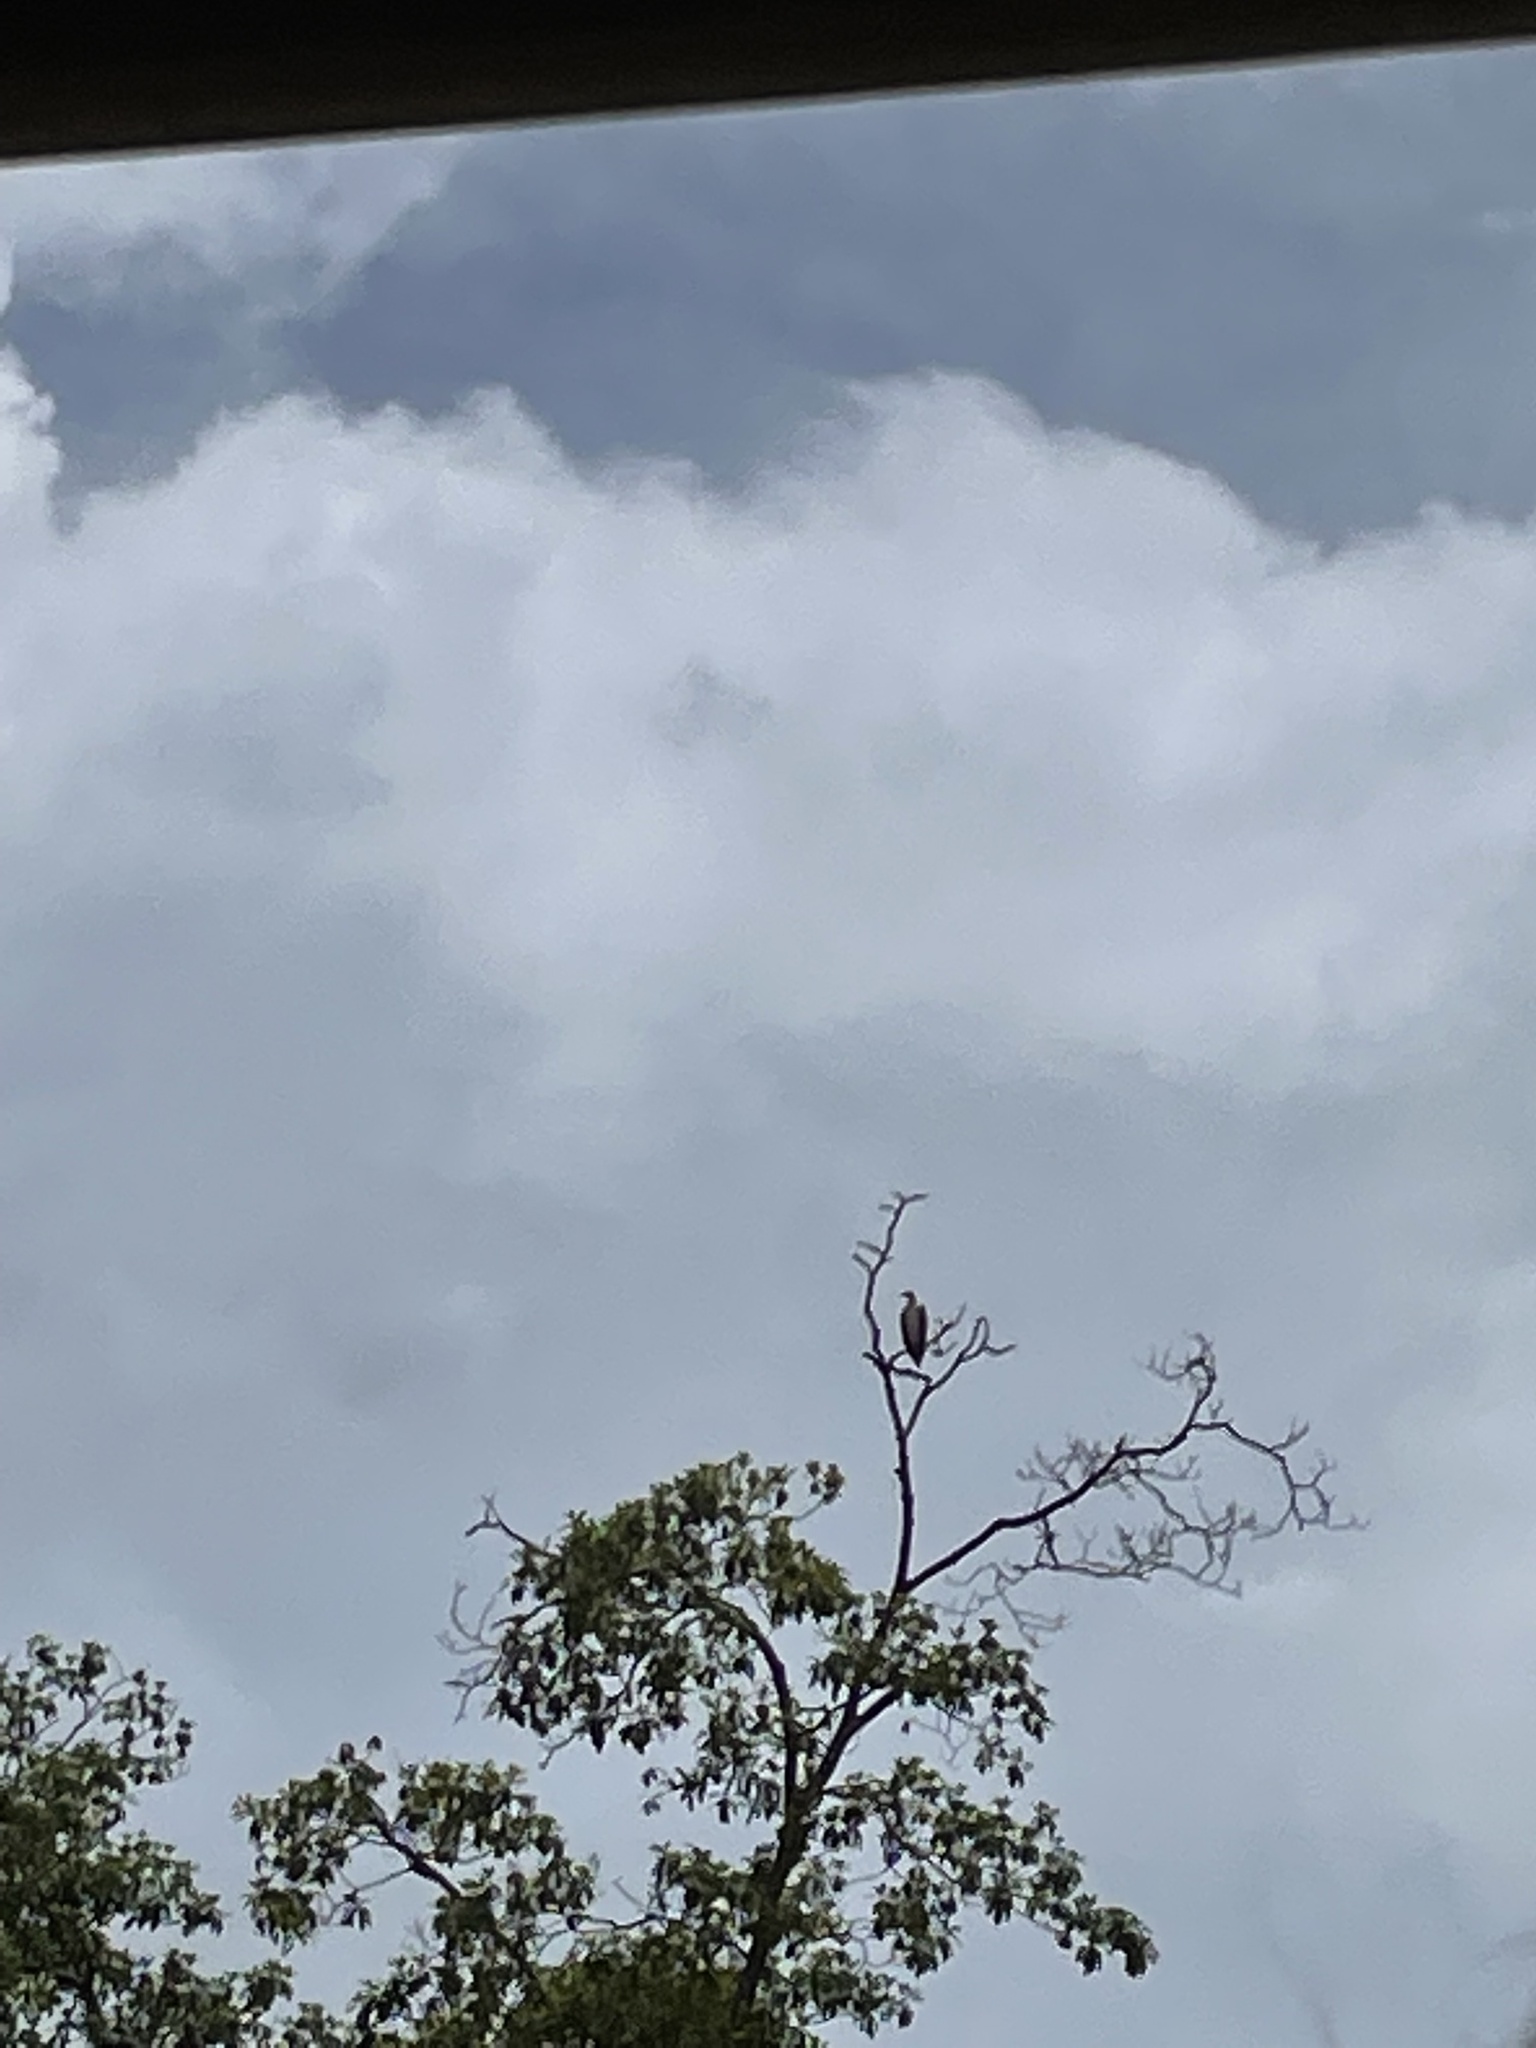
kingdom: Animalia
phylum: Chordata
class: Aves
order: Accipitriformes
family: Accipitridae
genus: Haliaeetus
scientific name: Haliaeetus leucogaster
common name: White-bellied sea eagle
